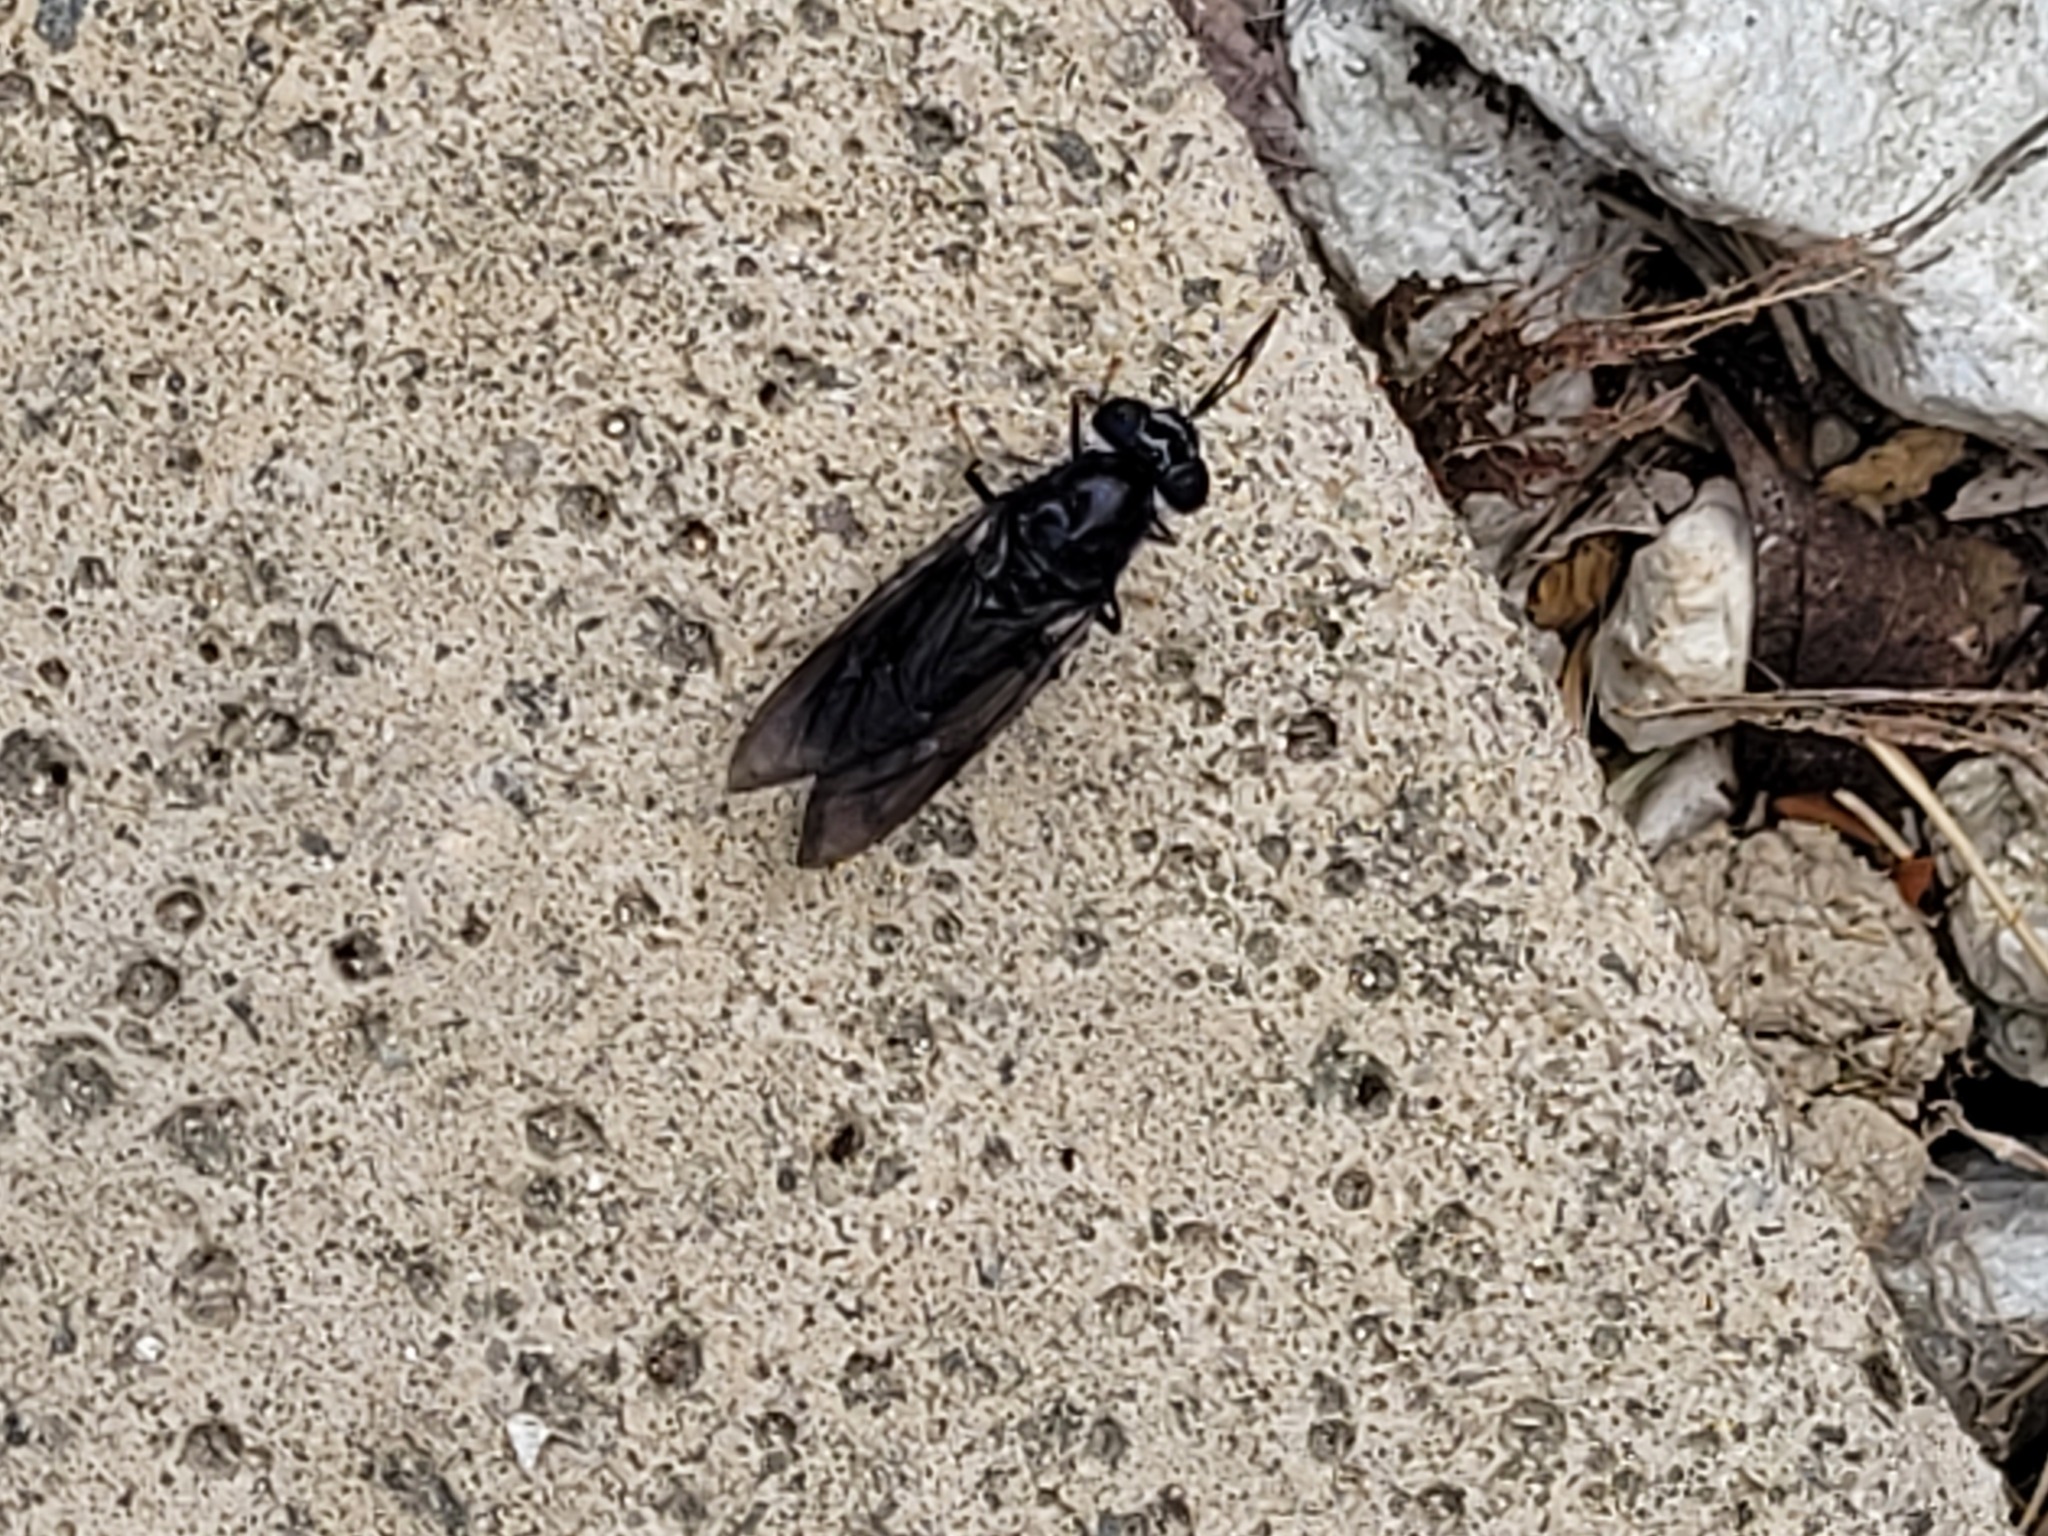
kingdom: Animalia
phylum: Arthropoda
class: Insecta
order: Diptera
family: Stratiomyidae
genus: Hermetia
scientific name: Hermetia illucens
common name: Black soldier fly
